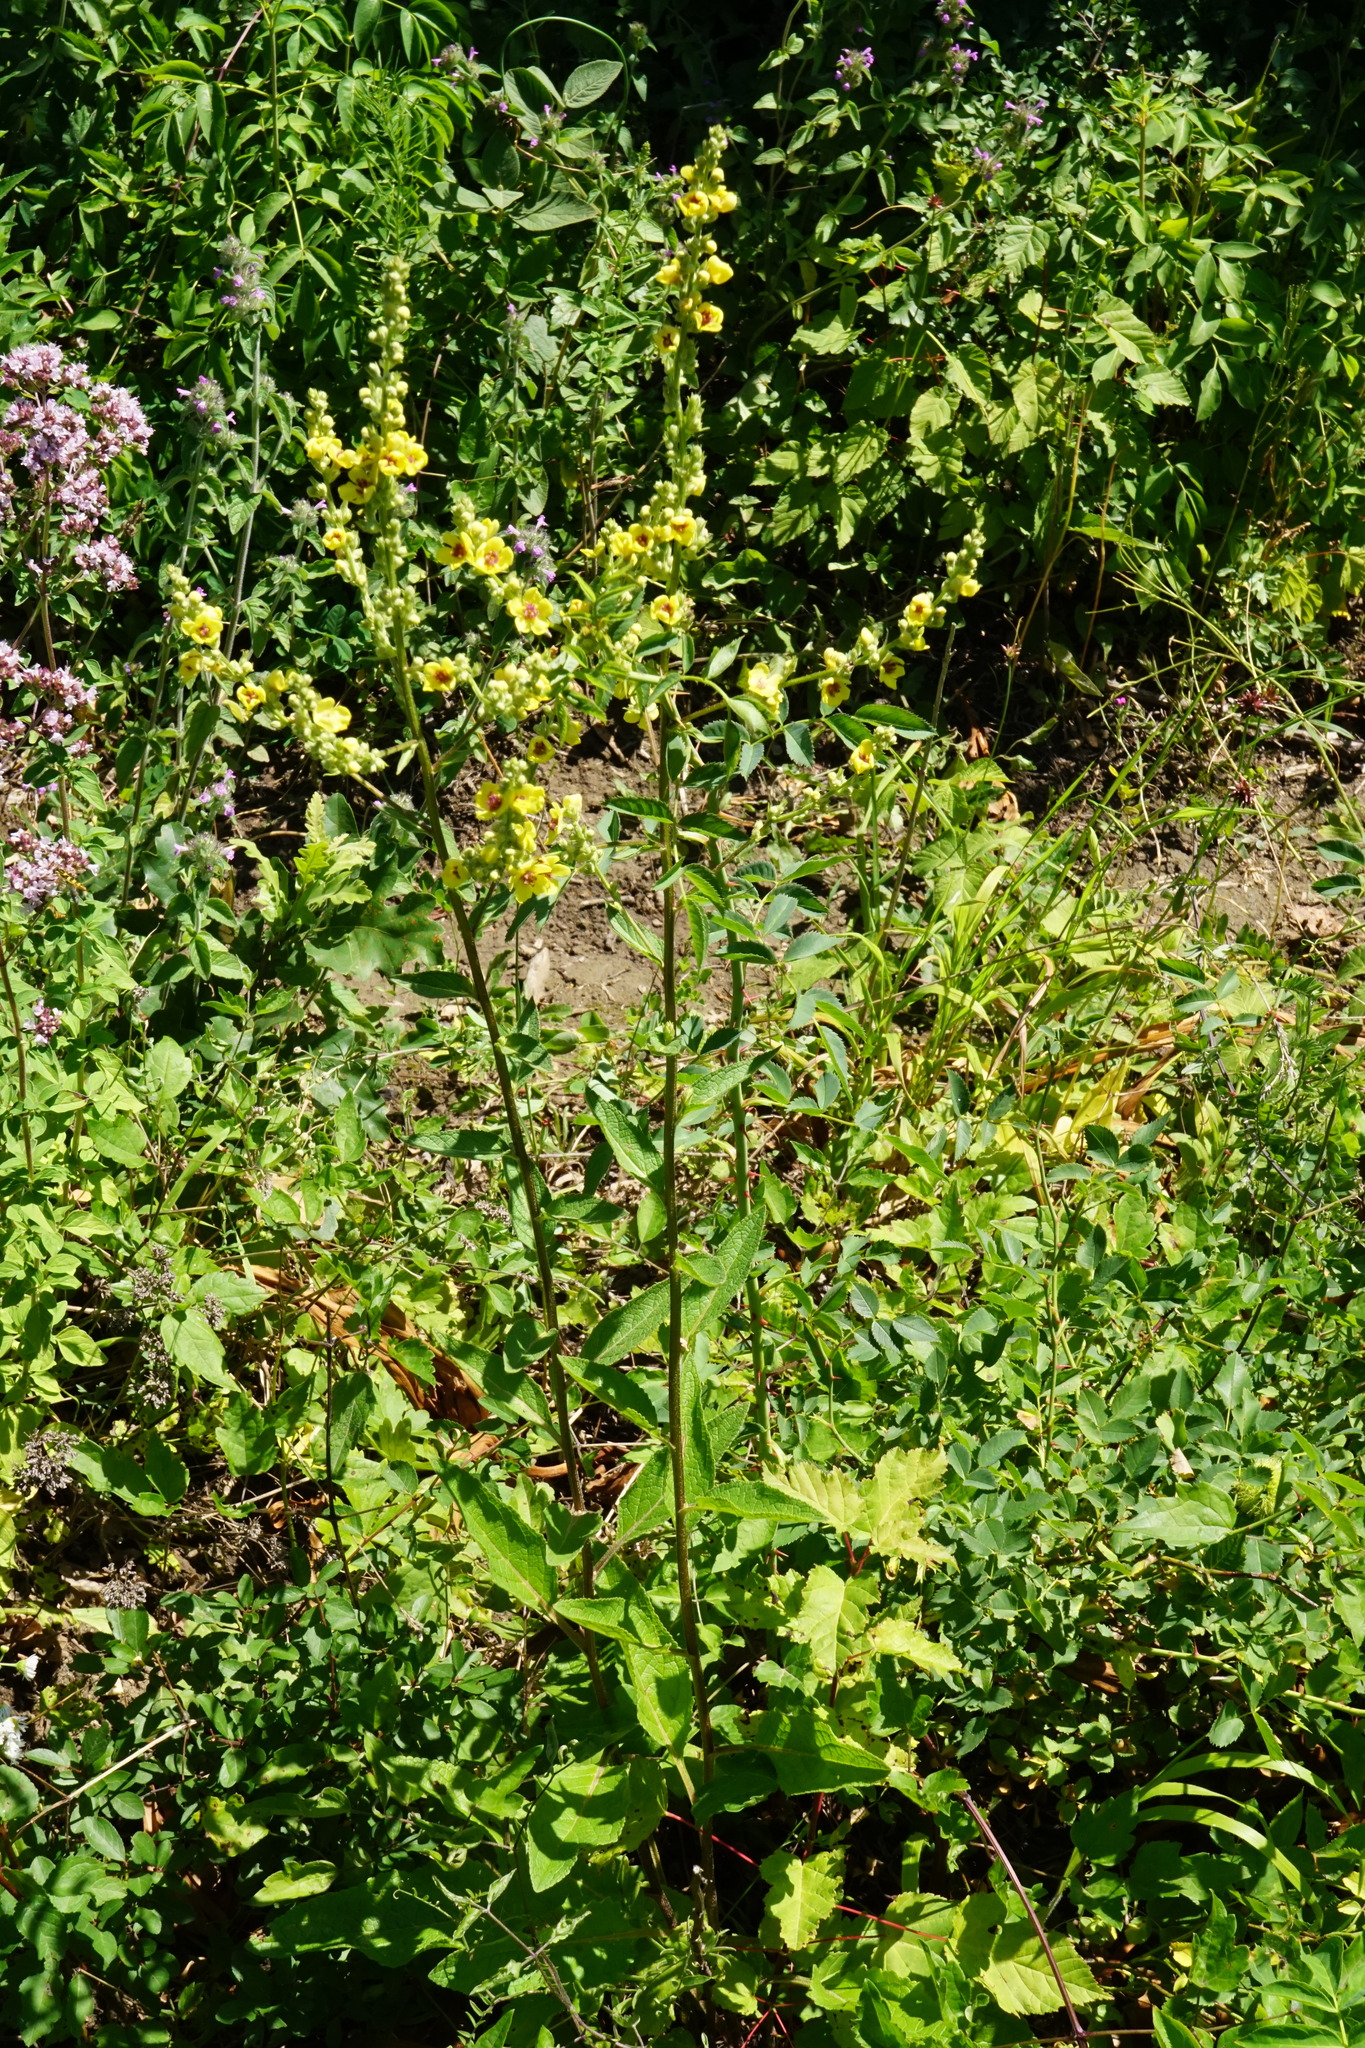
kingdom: Plantae
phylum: Tracheophyta
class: Magnoliopsida
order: Lamiales
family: Scrophulariaceae
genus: Verbascum
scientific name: Verbascum chaixii
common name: Nettle-leaved mullein
